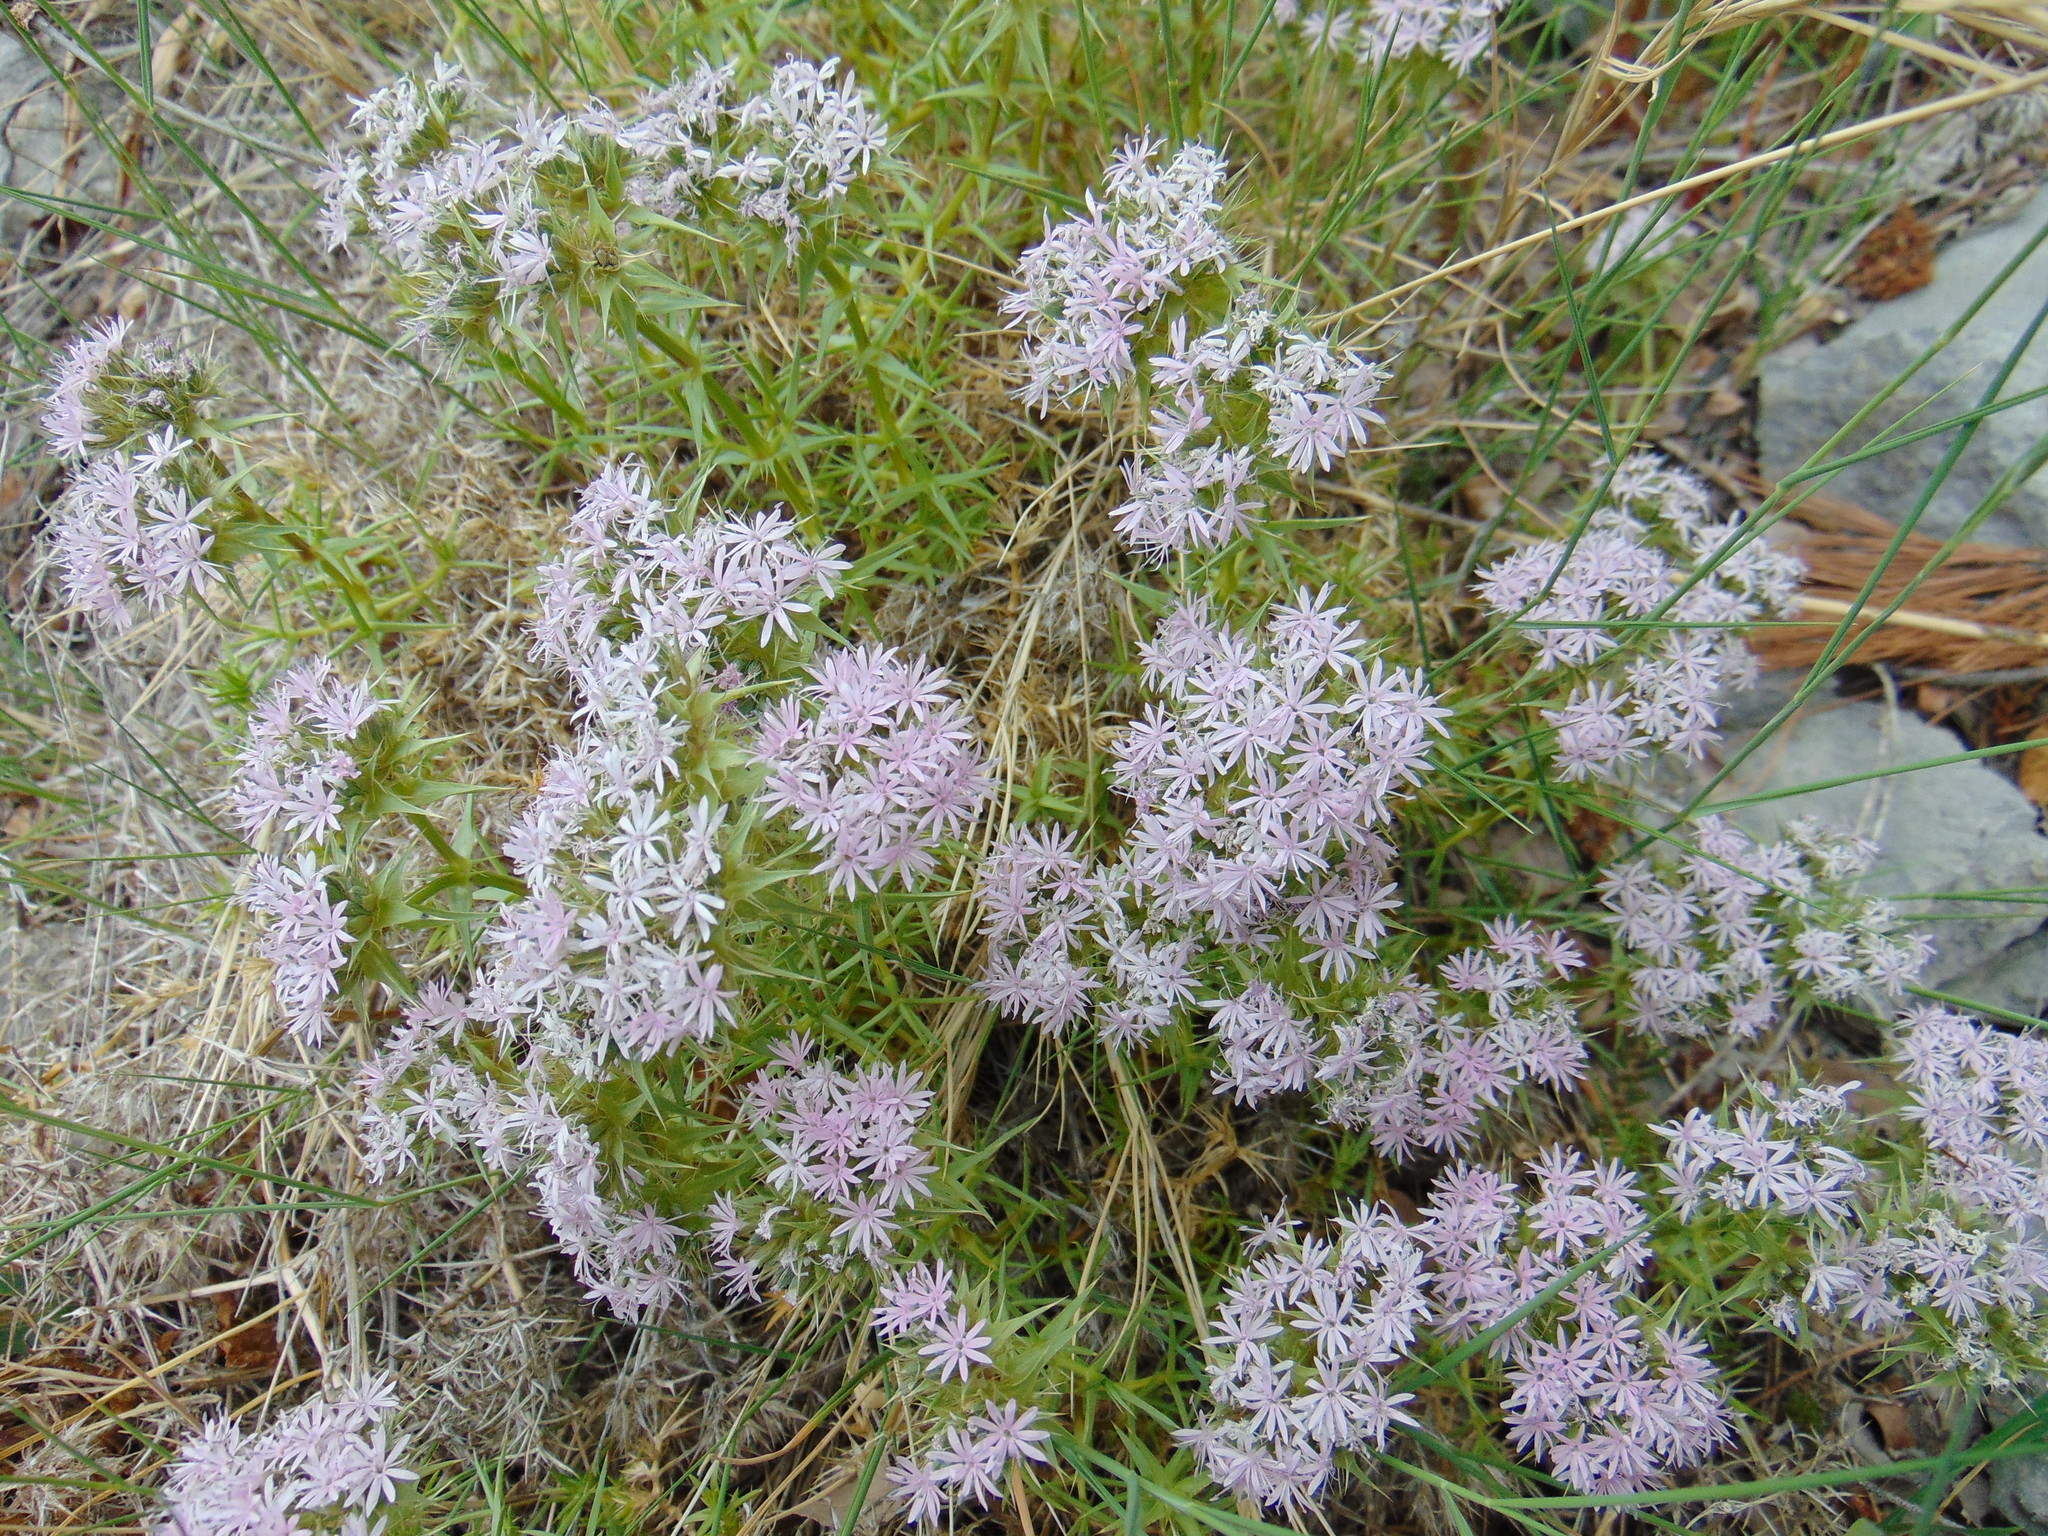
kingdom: Plantae
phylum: Tracheophyta
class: Magnoliopsida
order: Caryophyllales
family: Caryophyllaceae
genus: Drypis
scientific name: Drypis spinosa
